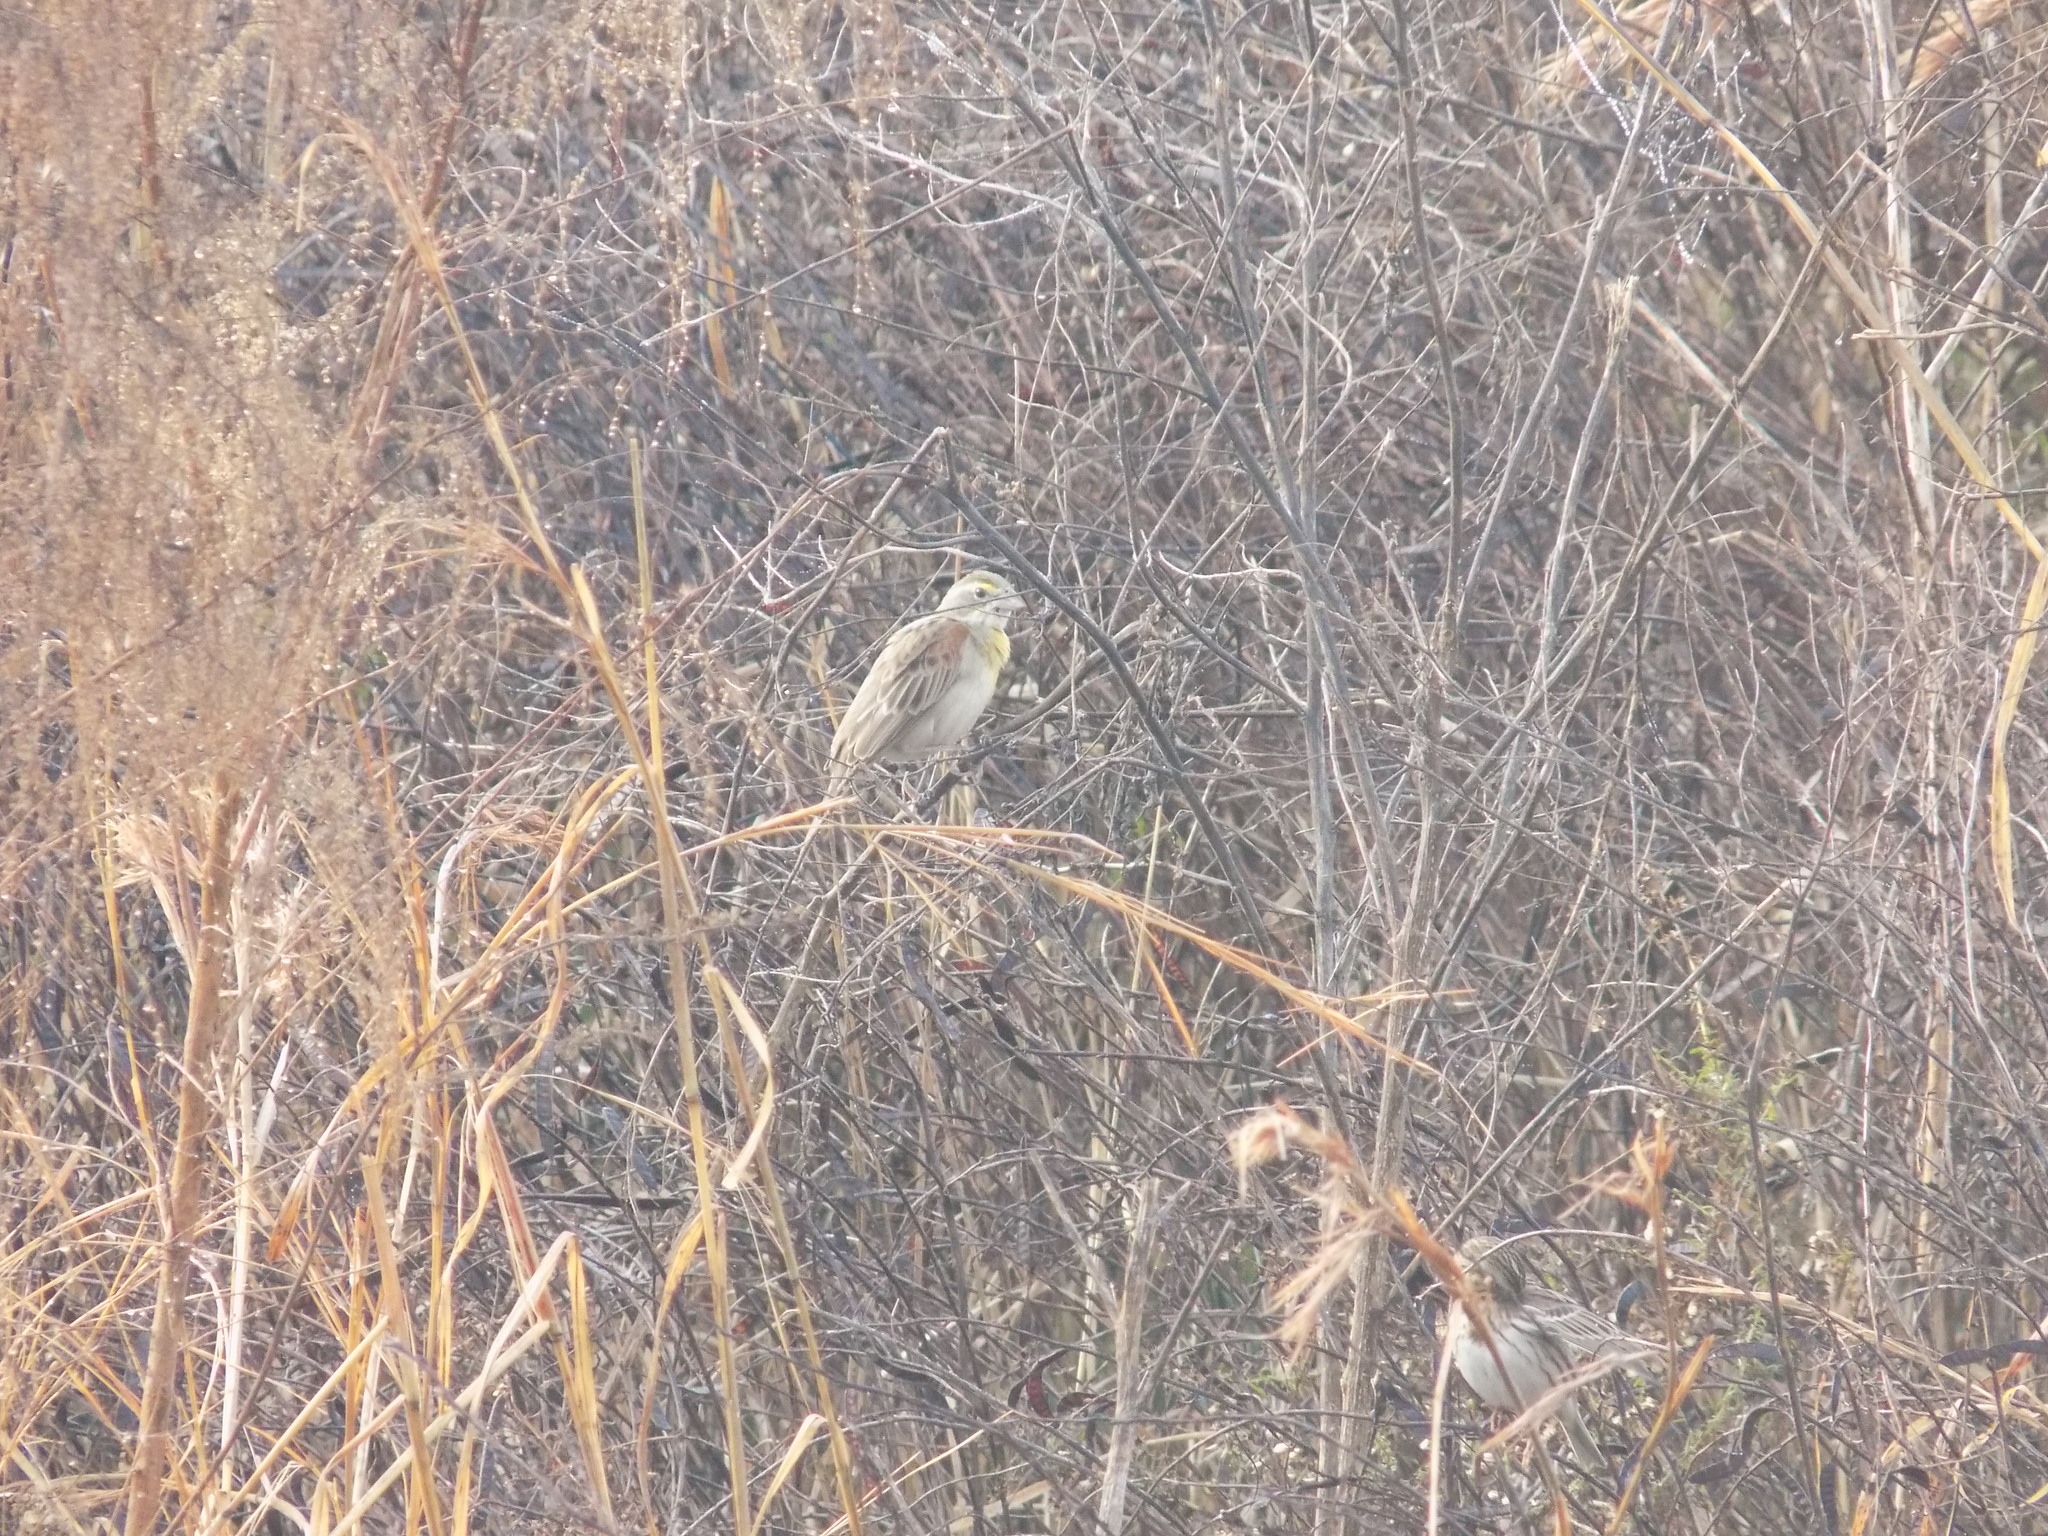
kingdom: Animalia
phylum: Chordata
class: Aves
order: Passeriformes
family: Cardinalidae
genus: Spiza
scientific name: Spiza americana
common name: Dickcissel
